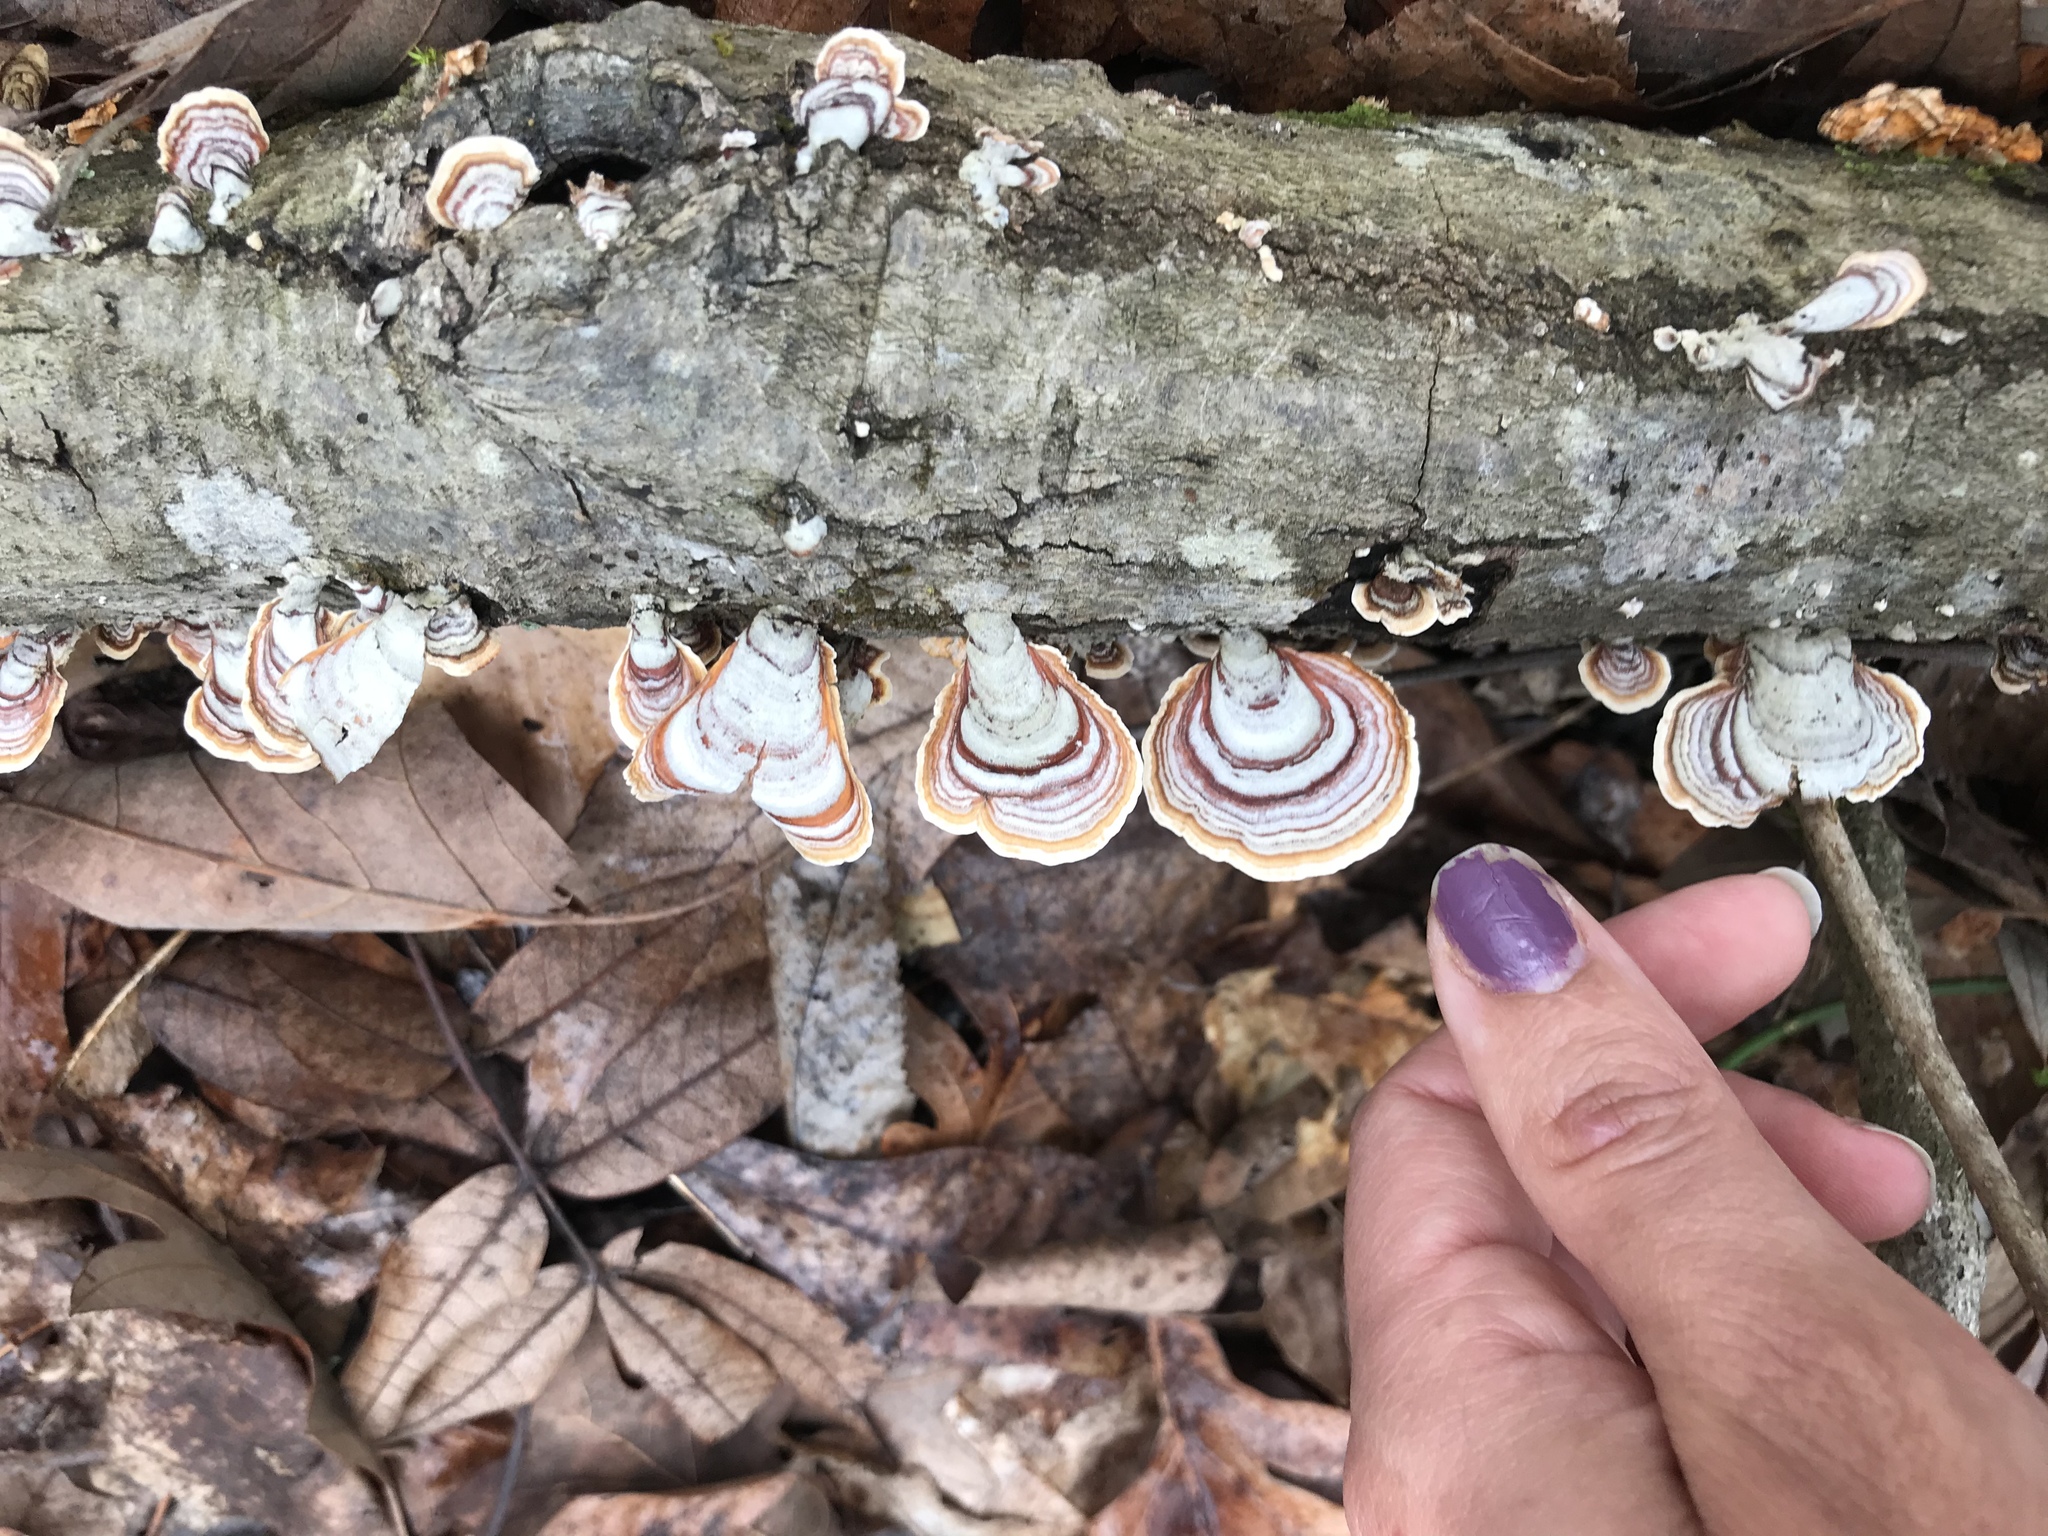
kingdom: Fungi
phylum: Basidiomycota
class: Agaricomycetes
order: Russulales
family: Stereaceae
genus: Stereum
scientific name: Stereum ostrea
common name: False turkeytail
